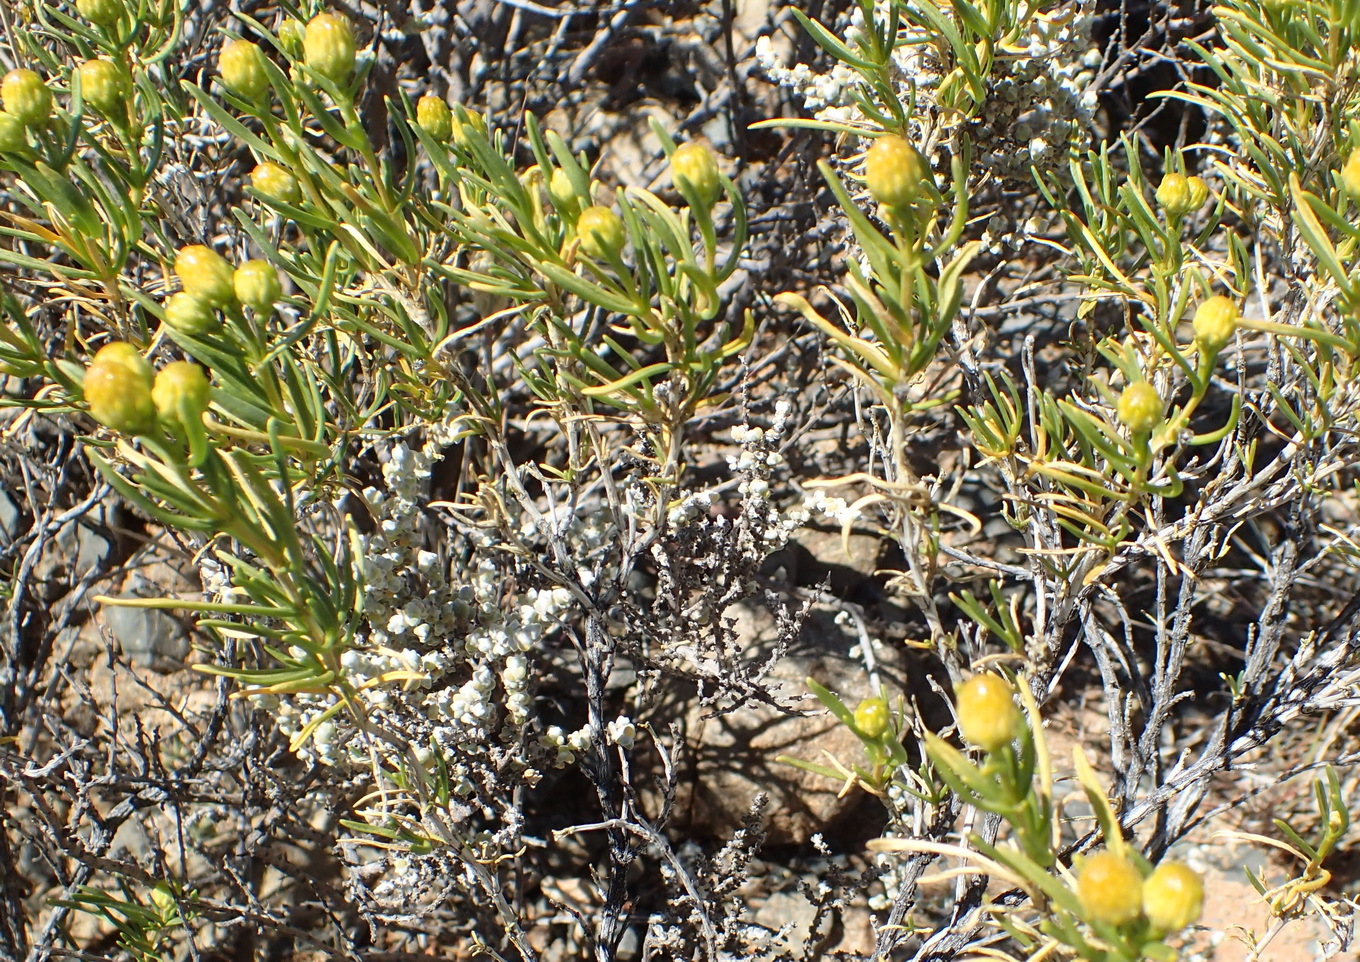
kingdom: Plantae
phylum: Tracheophyta
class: Magnoliopsida
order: Asterales
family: Asteraceae
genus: Pteronia
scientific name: Pteronia pallens
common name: Scholtzbush
